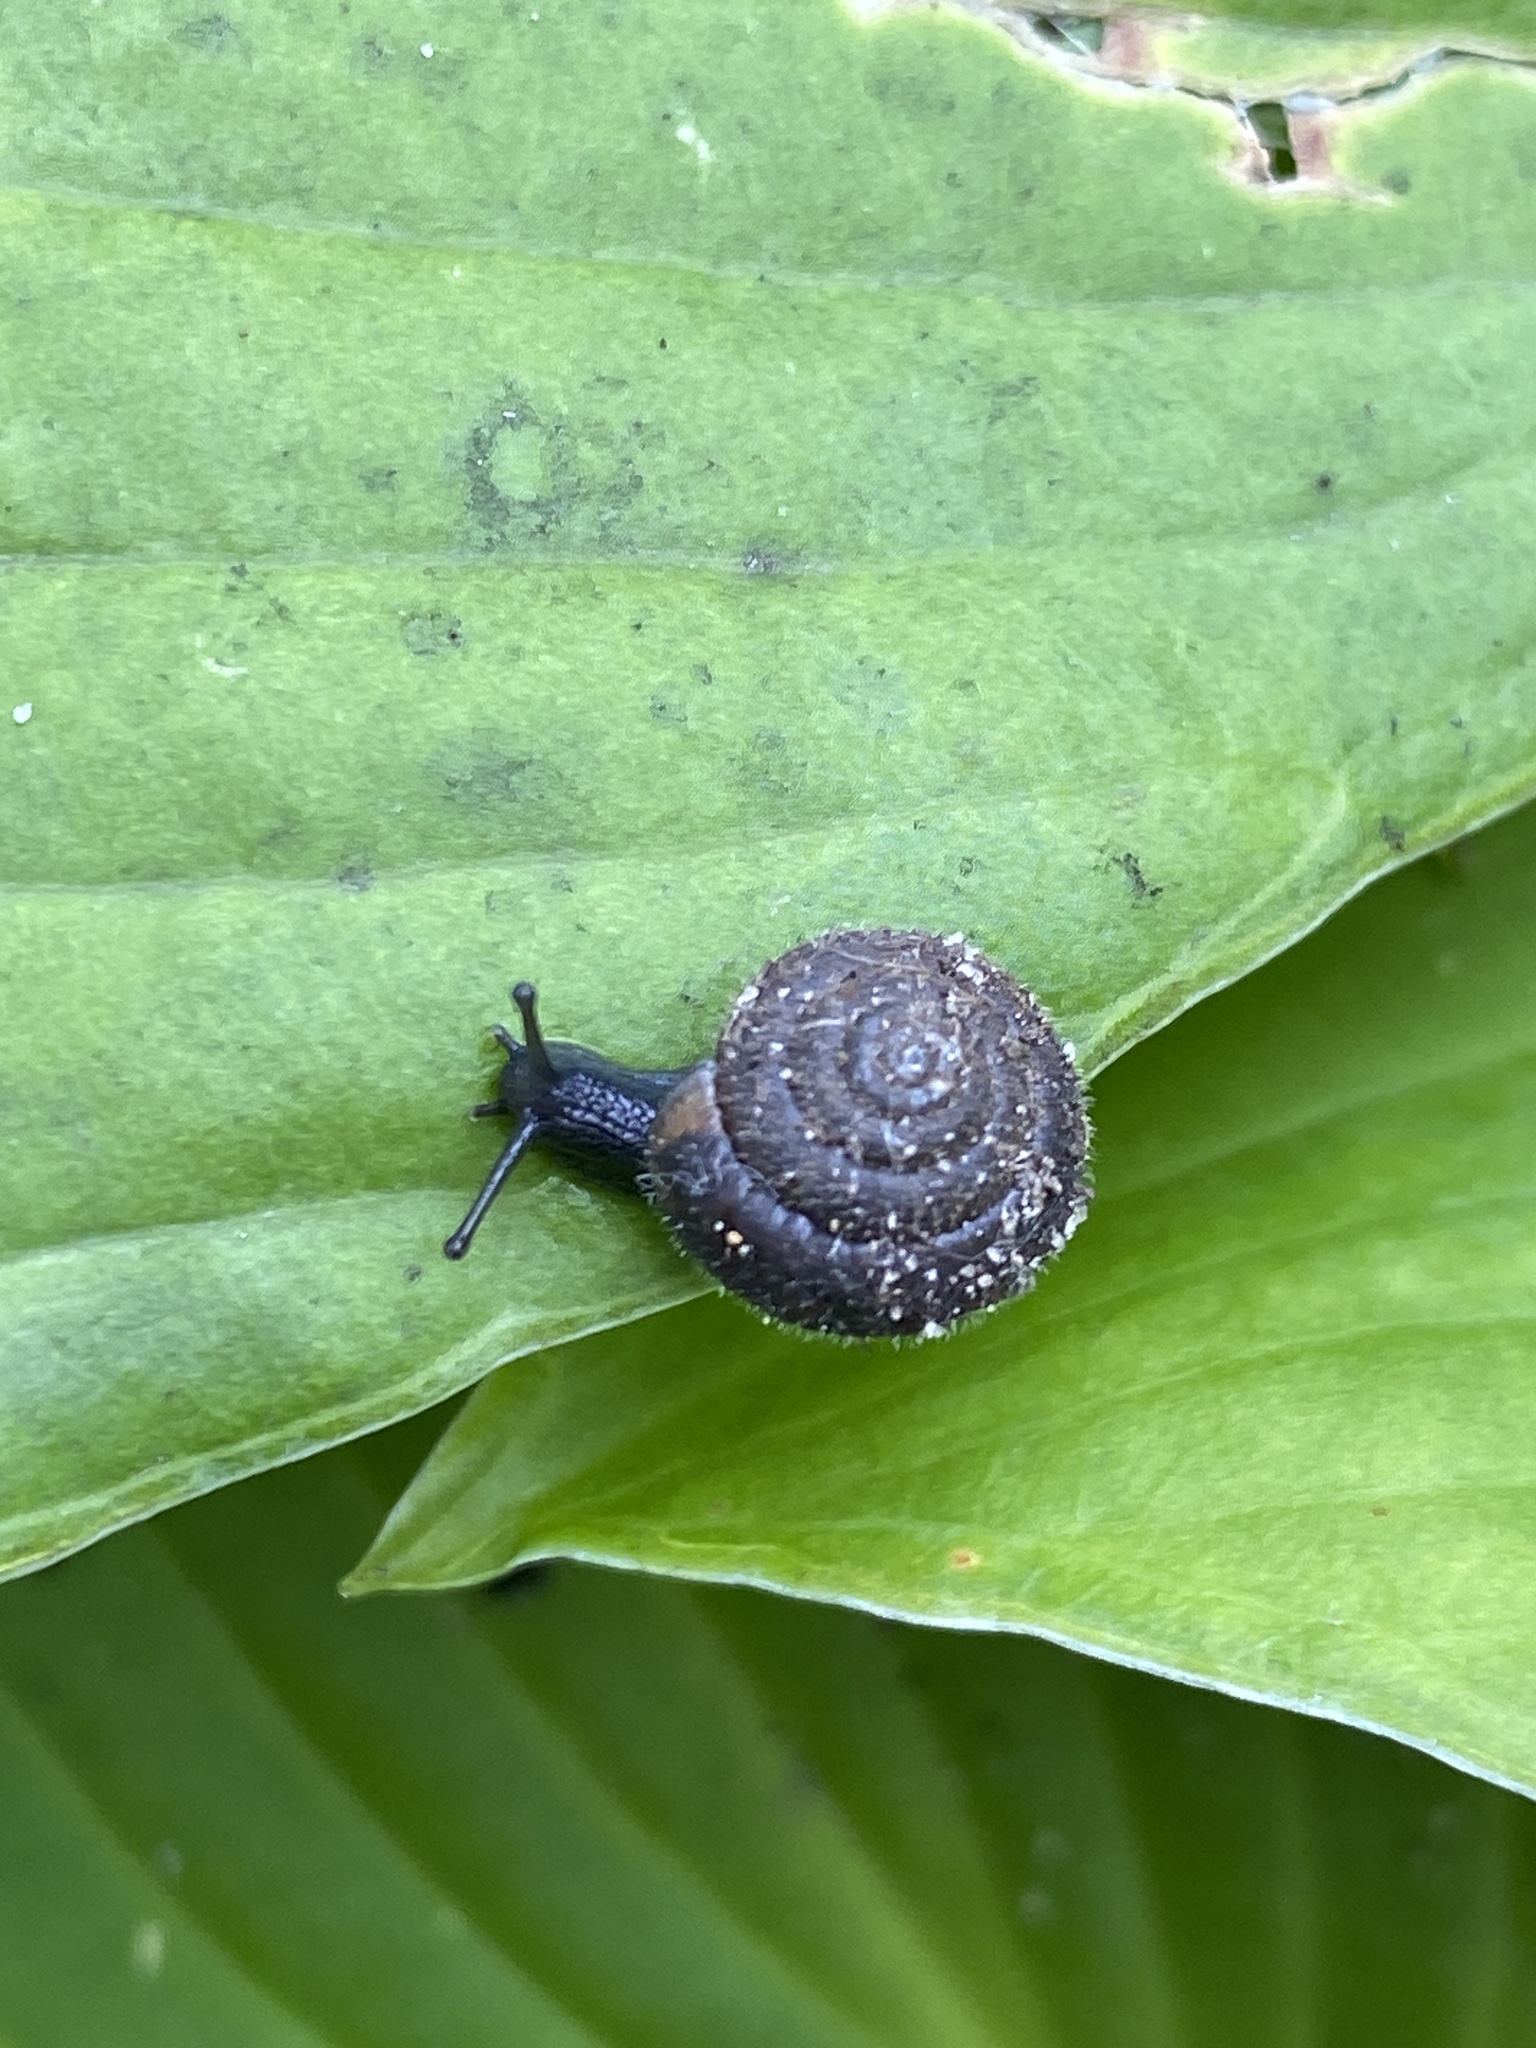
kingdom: Animalia
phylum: Mollusca
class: Gastropoda
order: Stylommatophora
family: Hygromiidae
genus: Trochulus
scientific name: Trochulus hispidus
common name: Hairy snail
